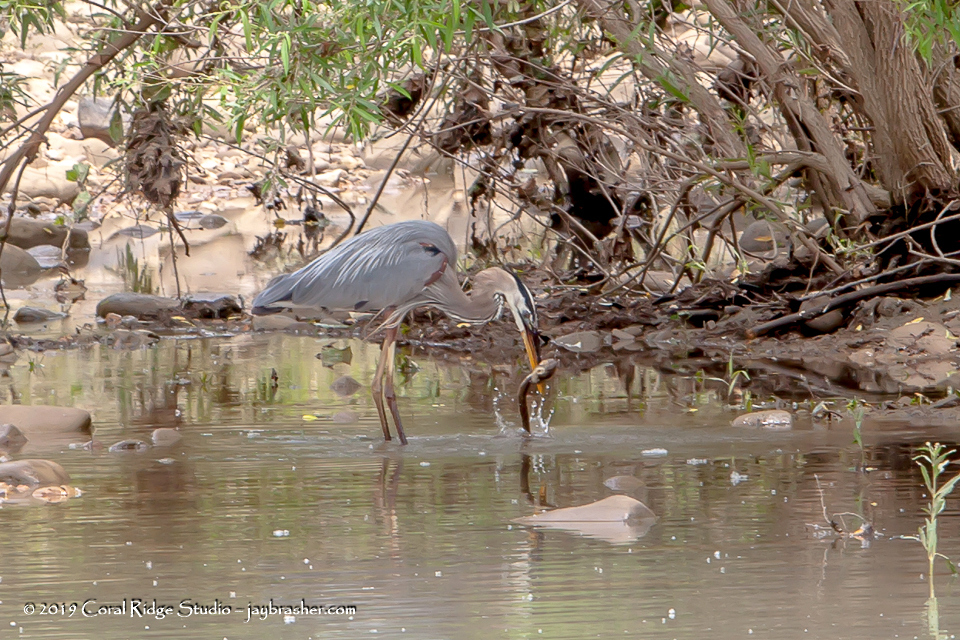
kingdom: Animalia
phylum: Chordata
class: Aves
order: Pelecaniformes
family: Ardeidae
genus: Ardea
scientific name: Ardea herodias
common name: Great blue heron
